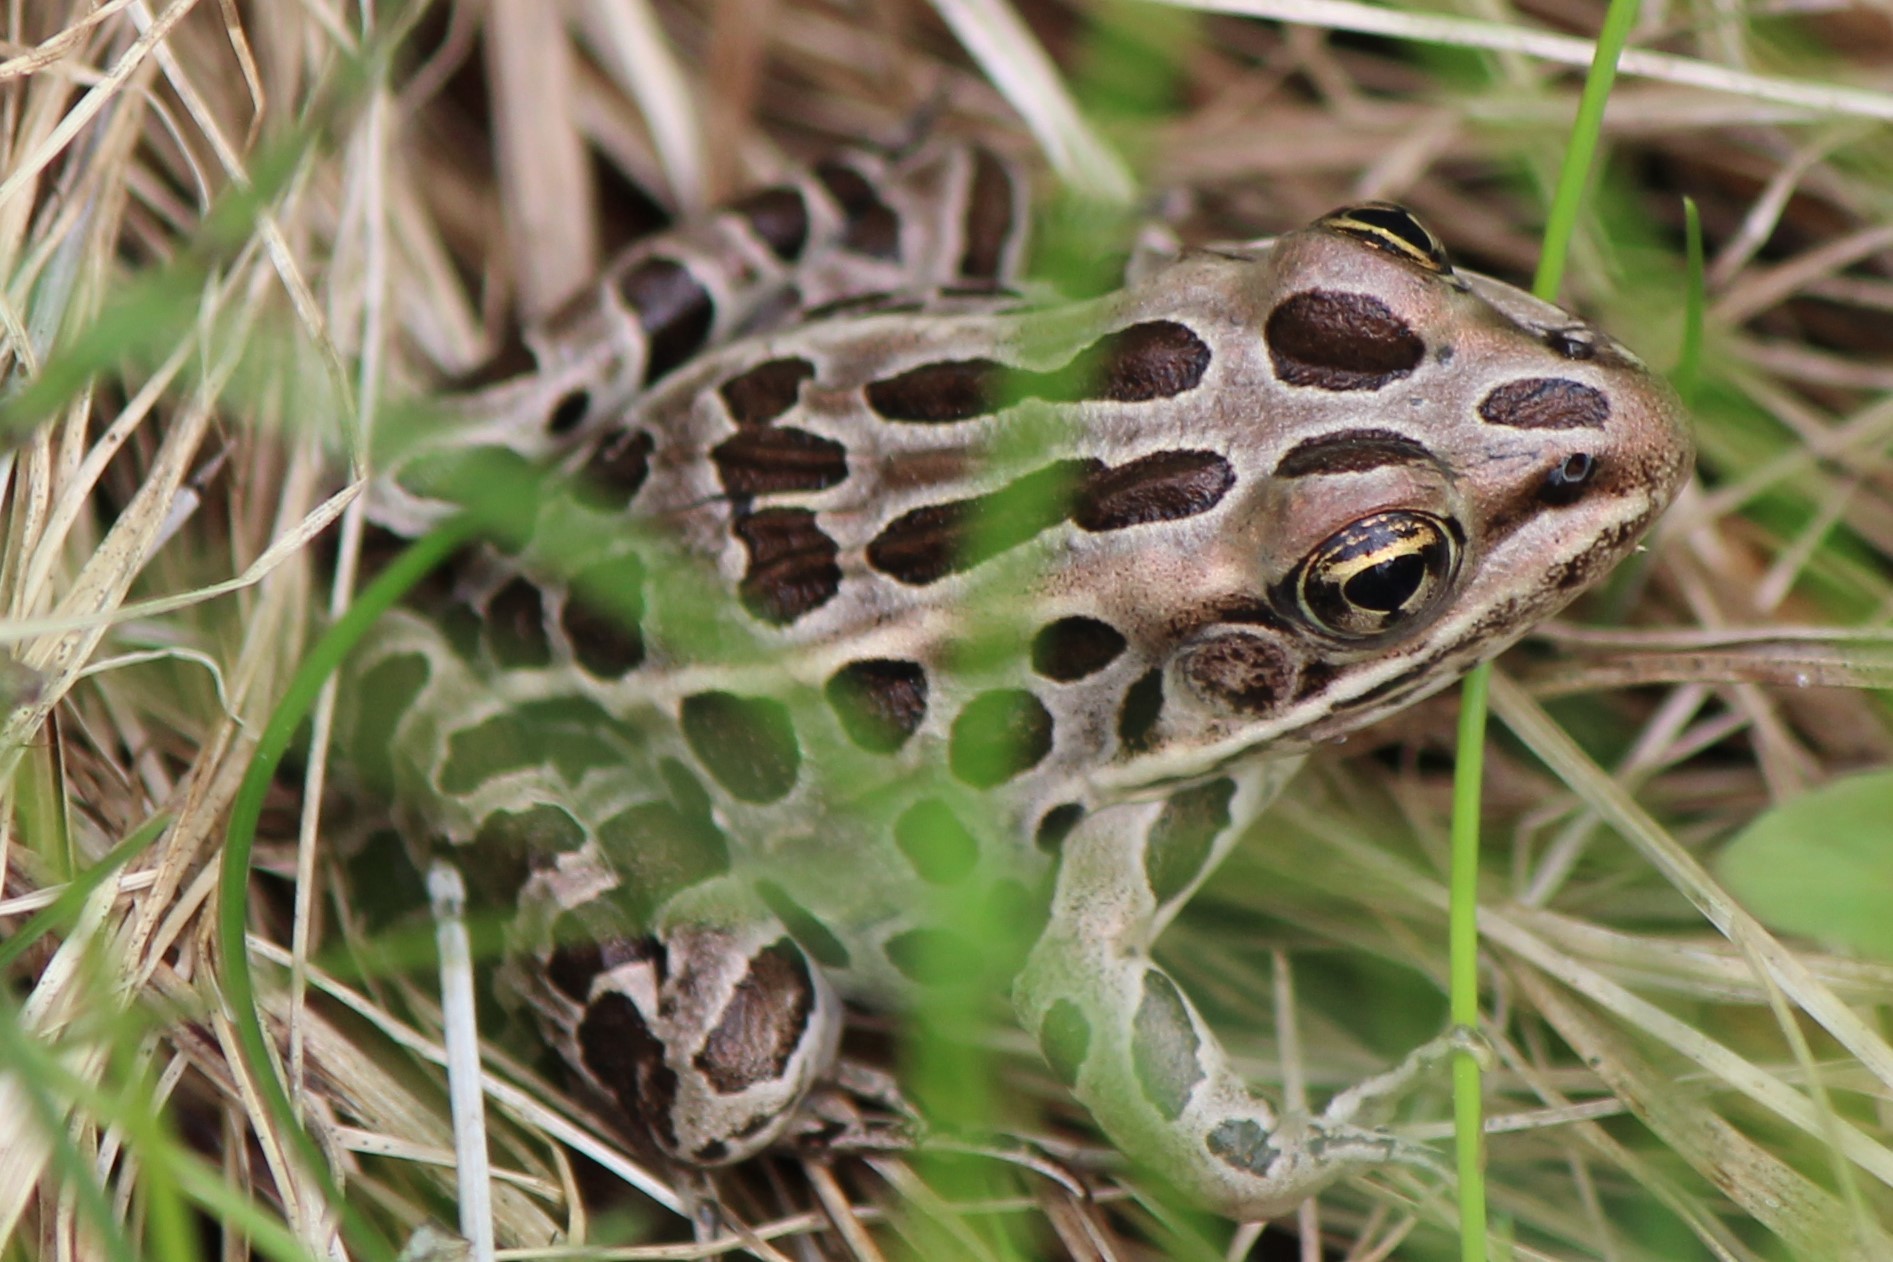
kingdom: Animalia
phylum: Chordata
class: Amphibia
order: Anura
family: Ranidae
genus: Lithobates
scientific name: Lithobates pipiens
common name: Northern leopard frog
